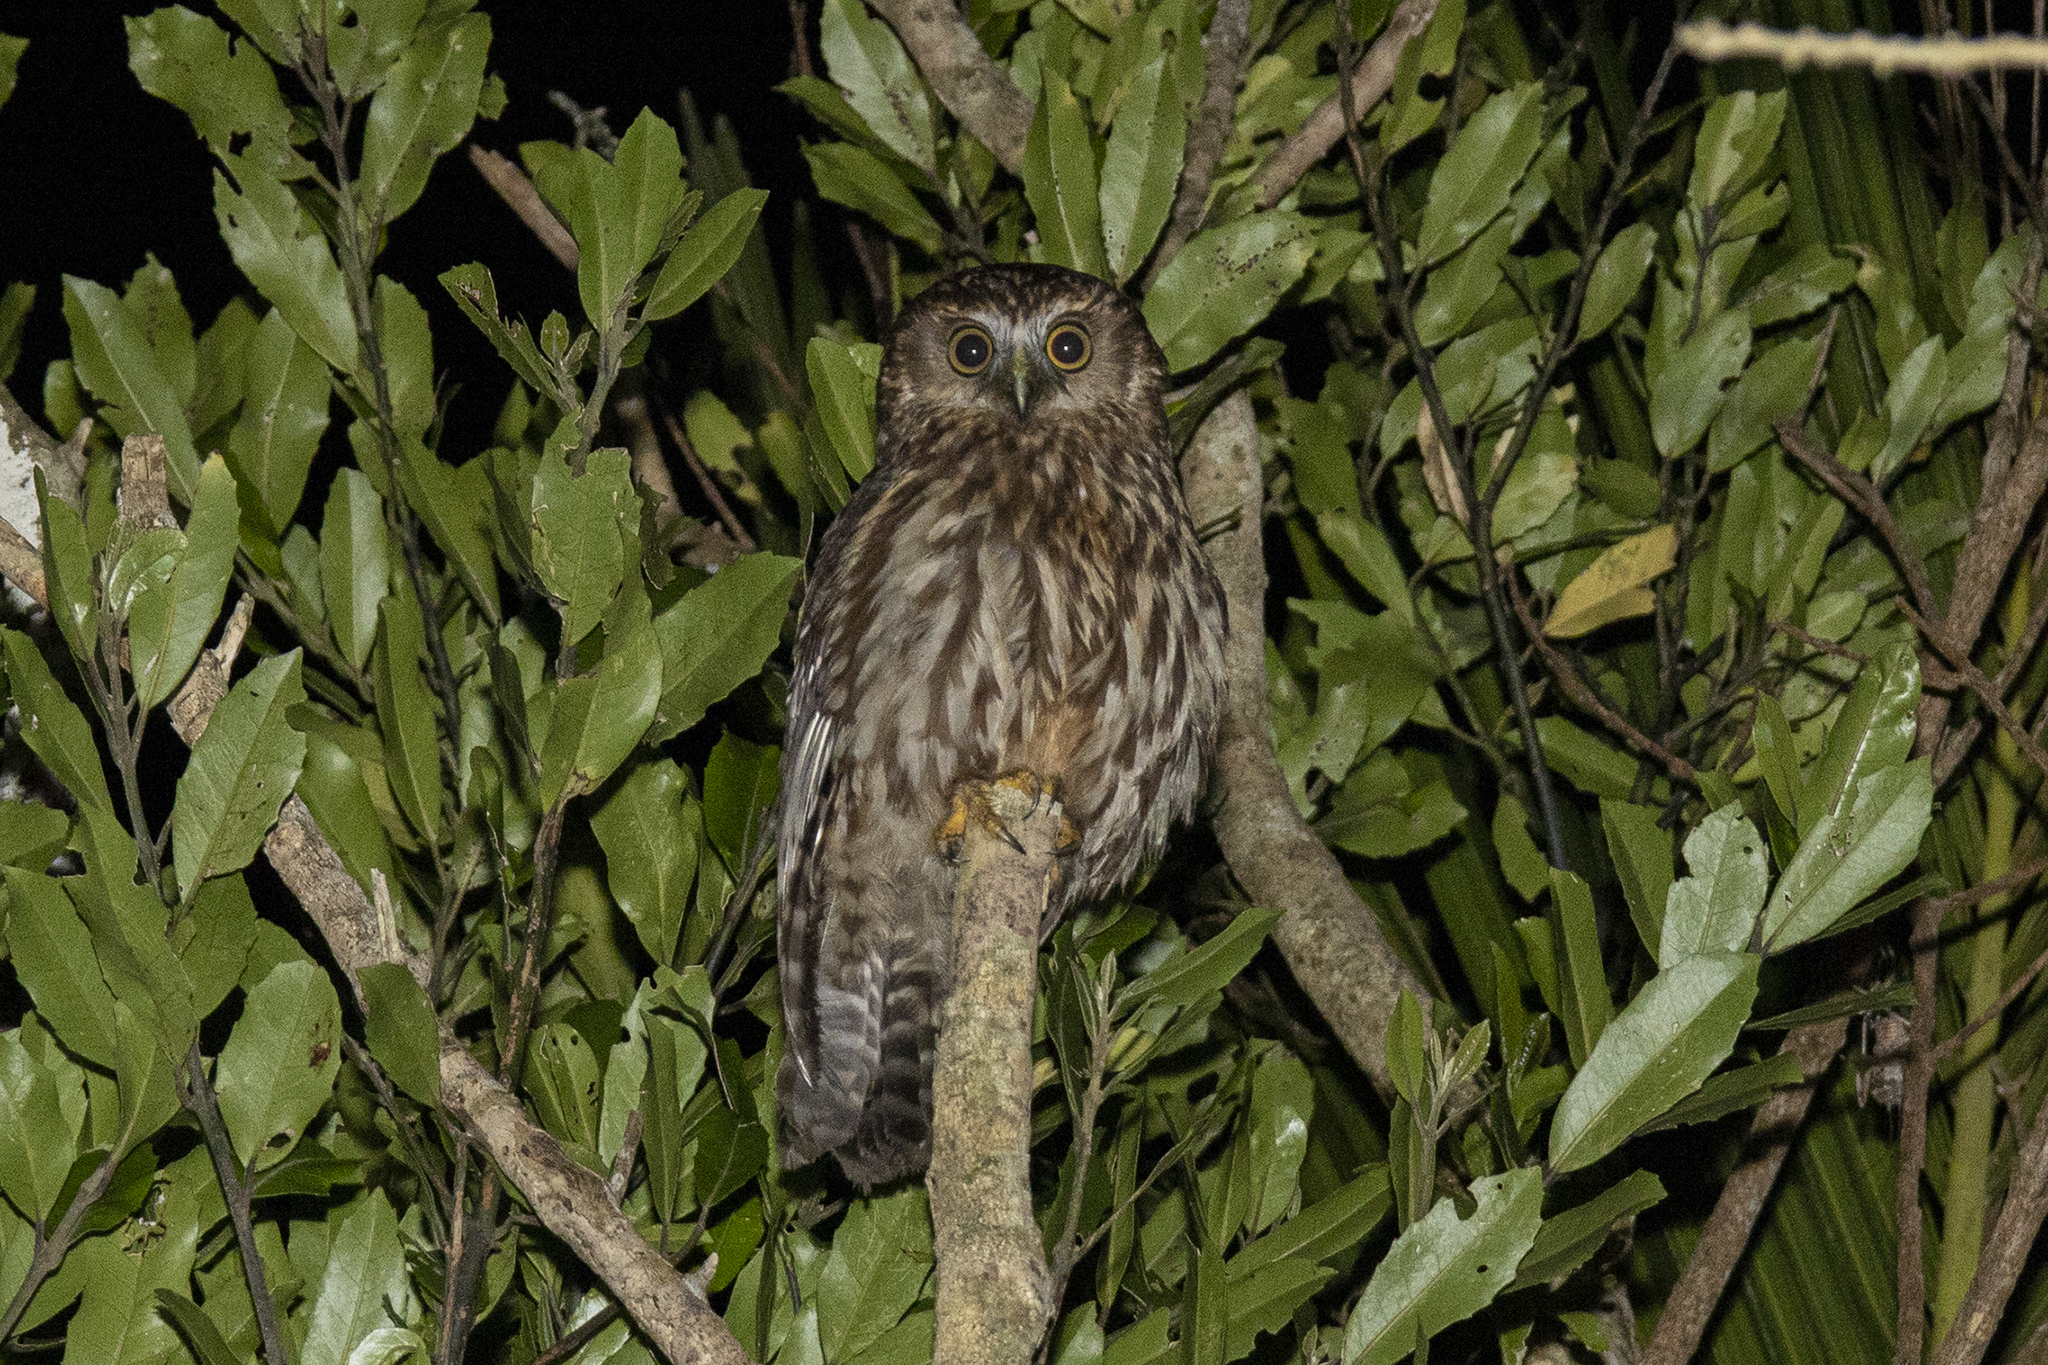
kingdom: Animalia
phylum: Chordata
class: Aves
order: Strigiformes
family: Strigidae
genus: Ninox
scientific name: Ninox novaeseelandiae
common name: Morepork
